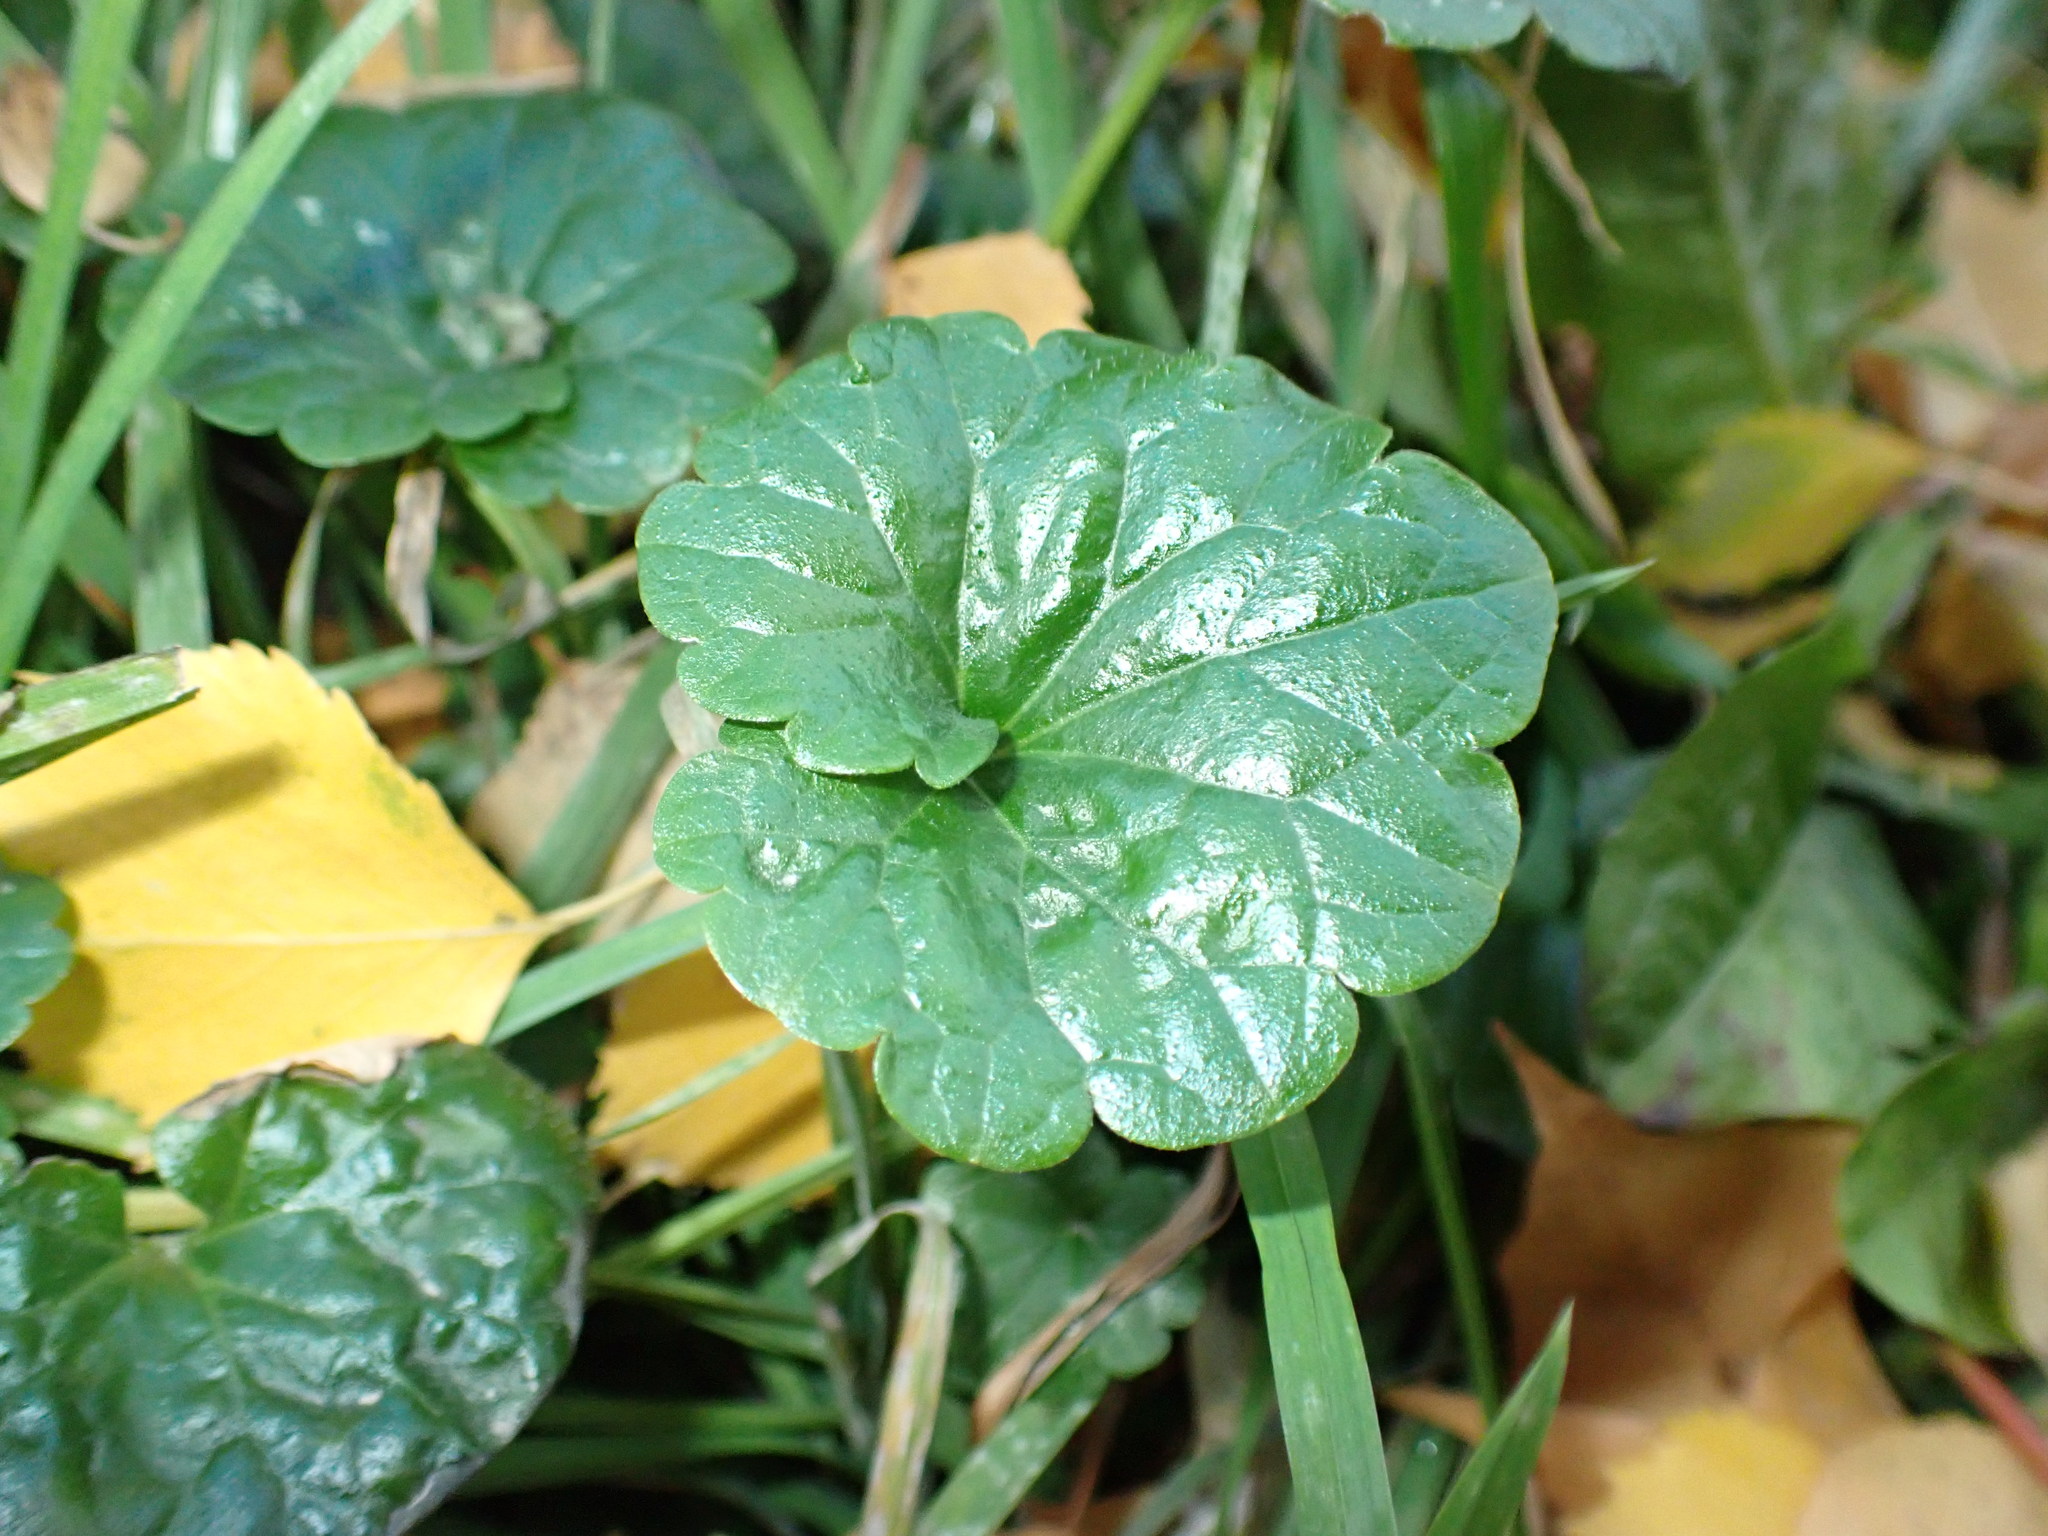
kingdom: Plantae
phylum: Tracheophyta
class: Magnoliopsida
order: Lamiales
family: Lamiaceae
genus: Glechoma
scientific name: Glechoma hederacea
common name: Ground ivy
